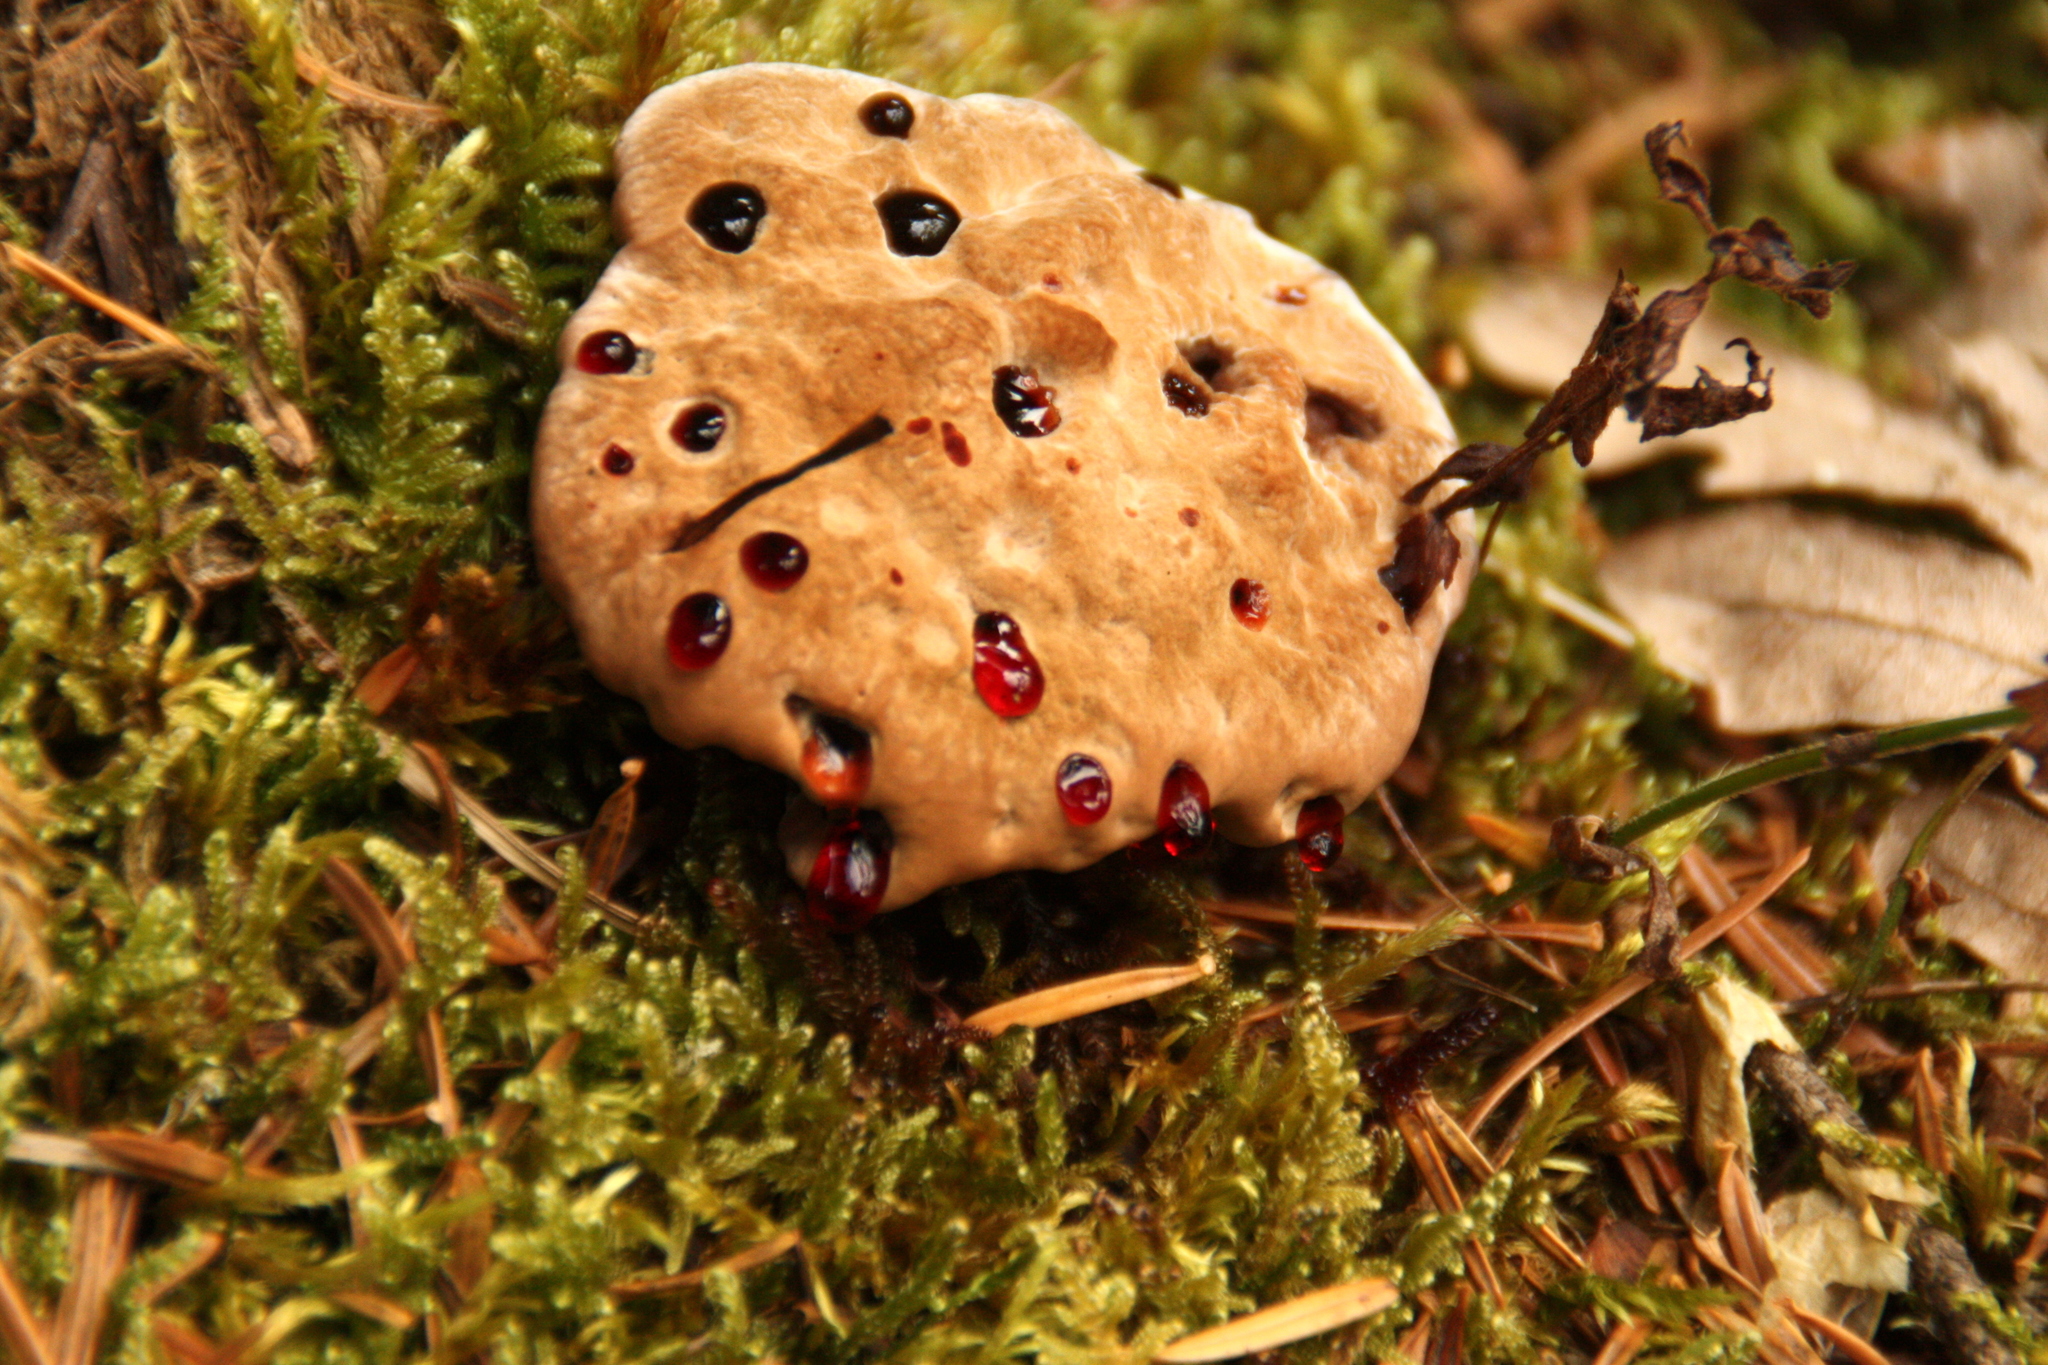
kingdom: Fungi
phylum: Basidiomycota
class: Agaricomycetes
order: Thelephorales
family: Bankeraceae
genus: Hydnellum
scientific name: Hydnellum ferrugineum
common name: Mealy tooth
